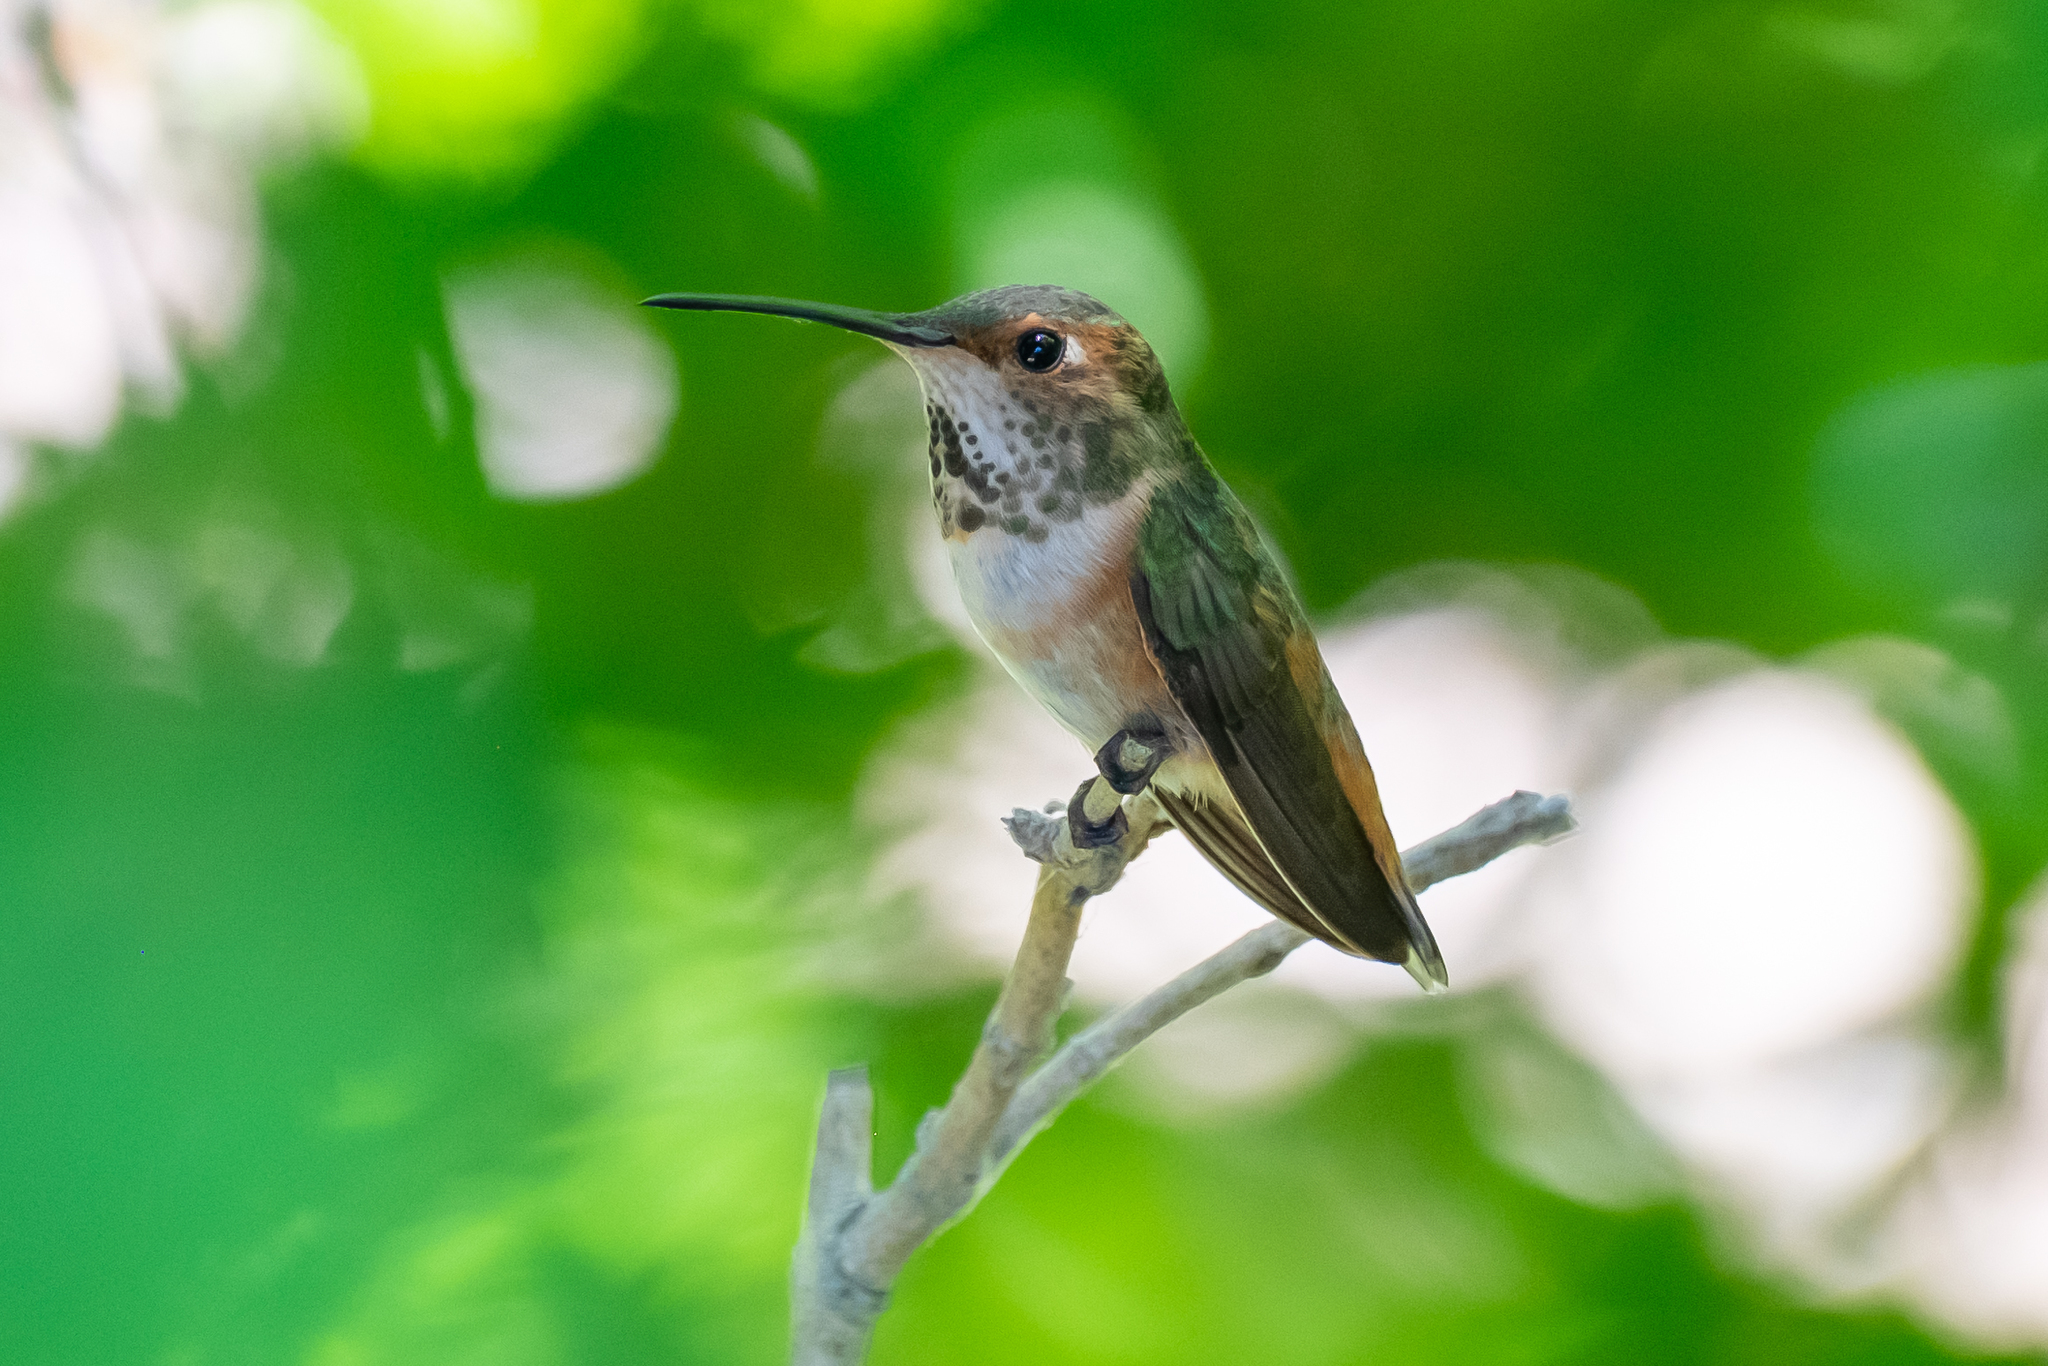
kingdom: Animalia
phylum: Chordata
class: Aves
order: Apodiformes
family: Trochilidae
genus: Selasphorus
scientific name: Selasphorus sasin
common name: Allen's hummingbird
